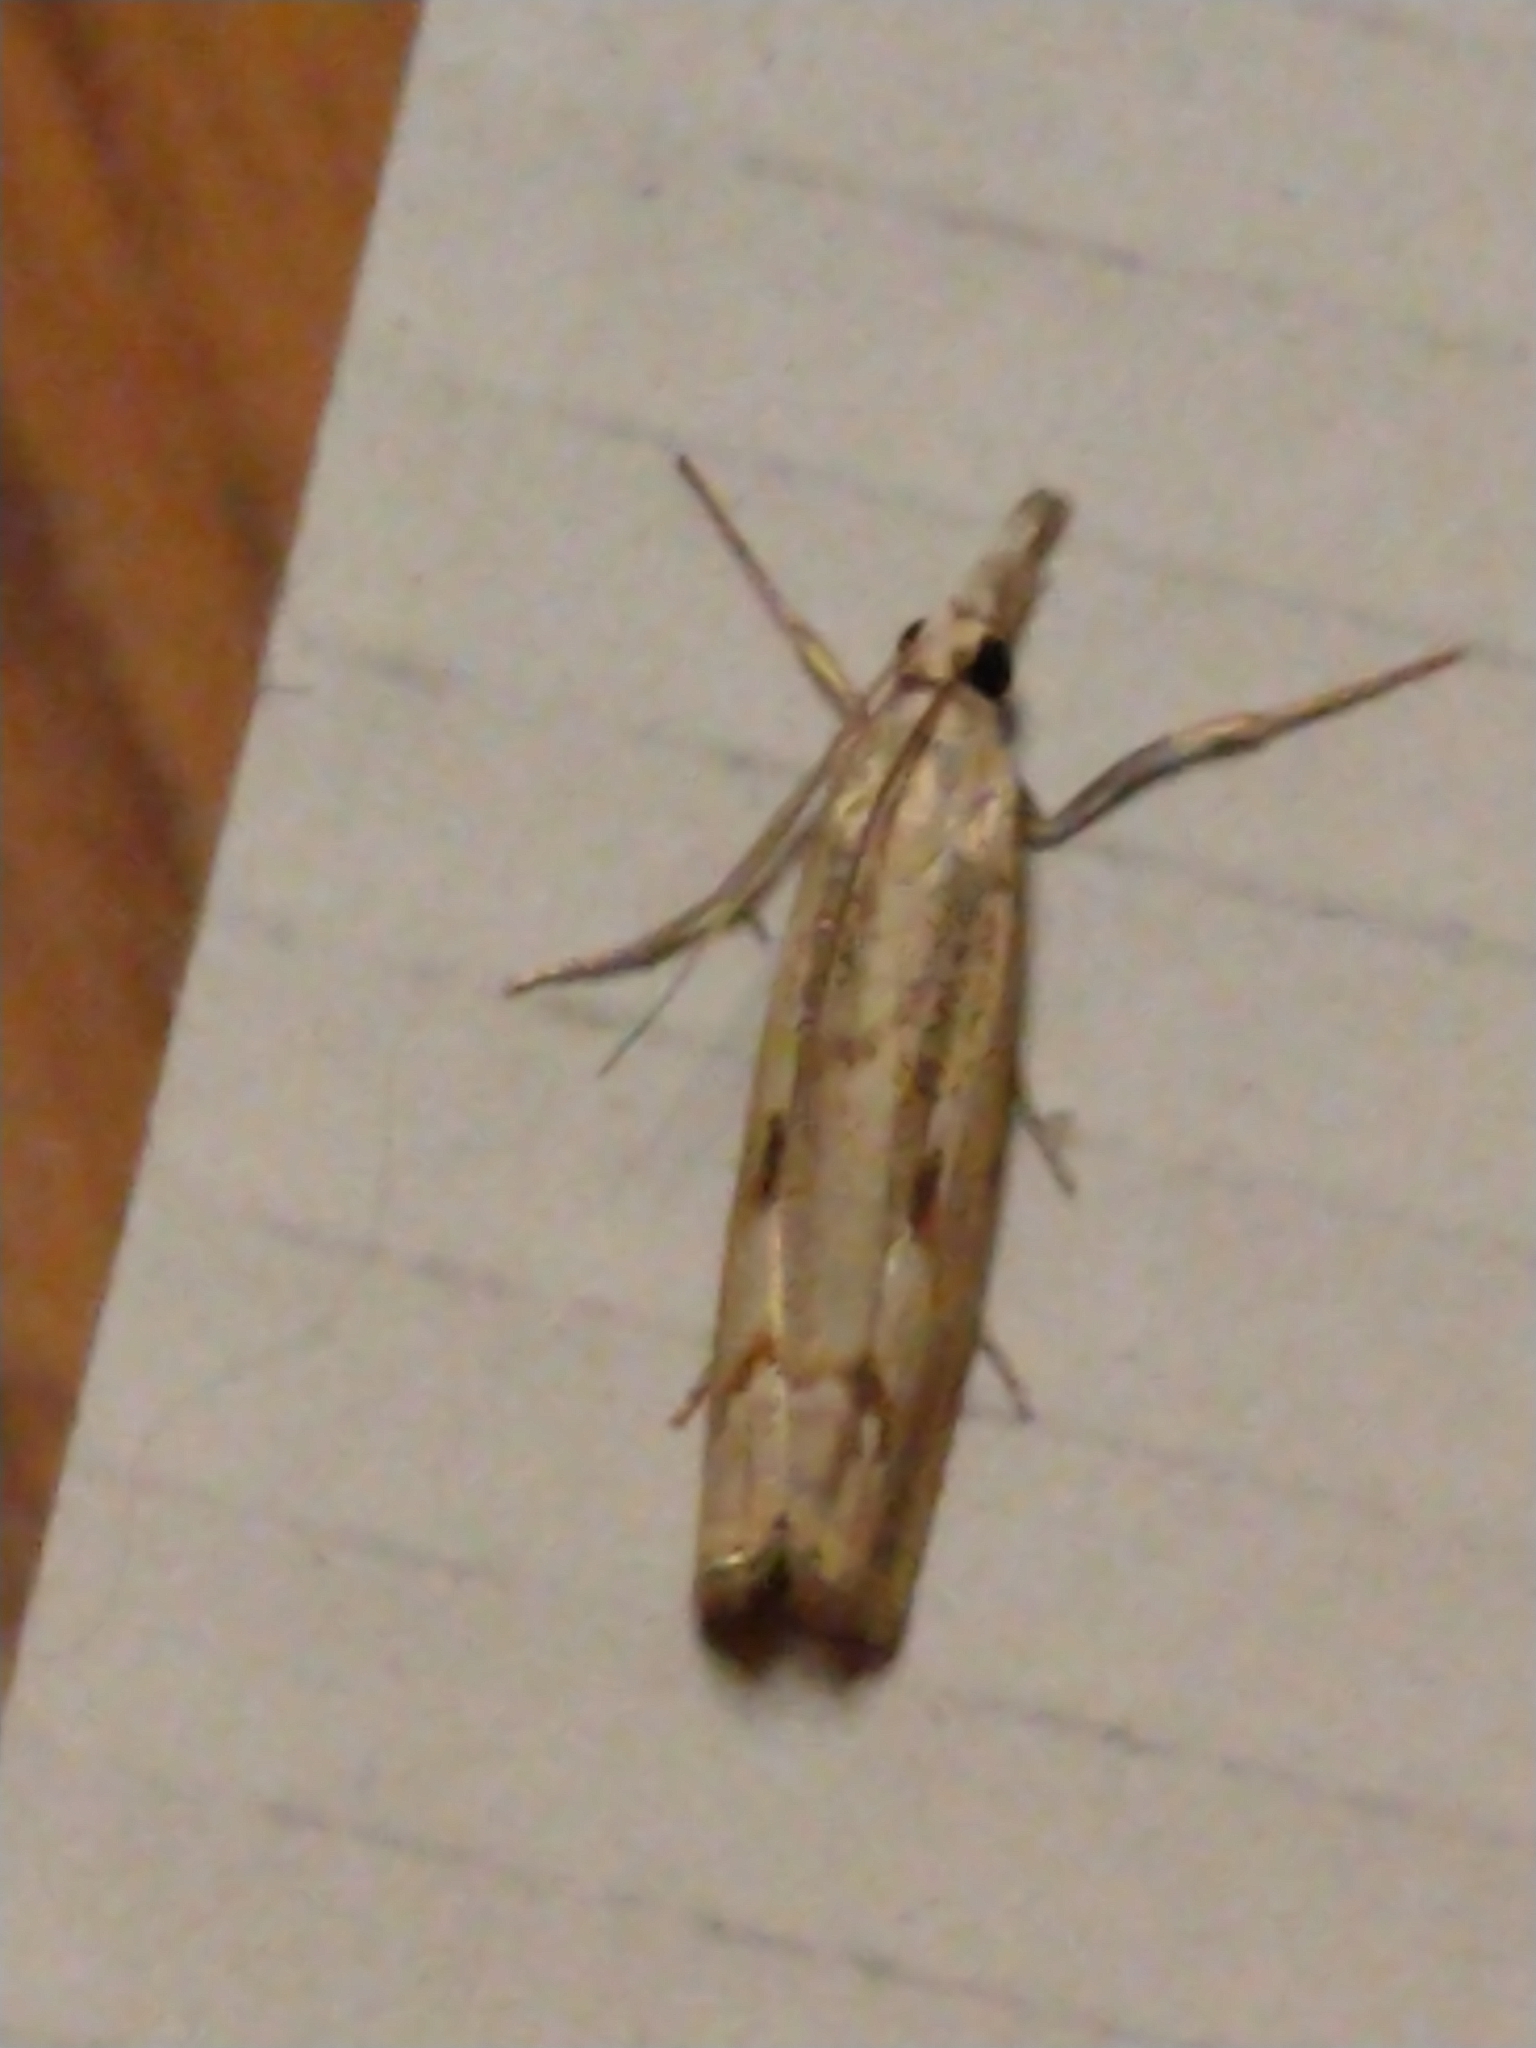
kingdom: Animalia
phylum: Arthropoda
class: Insecta
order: Lepidoptera
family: Crambidae
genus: Agriphila
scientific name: Agriphila geniculea
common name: Elbow-stripe grass-veneer
